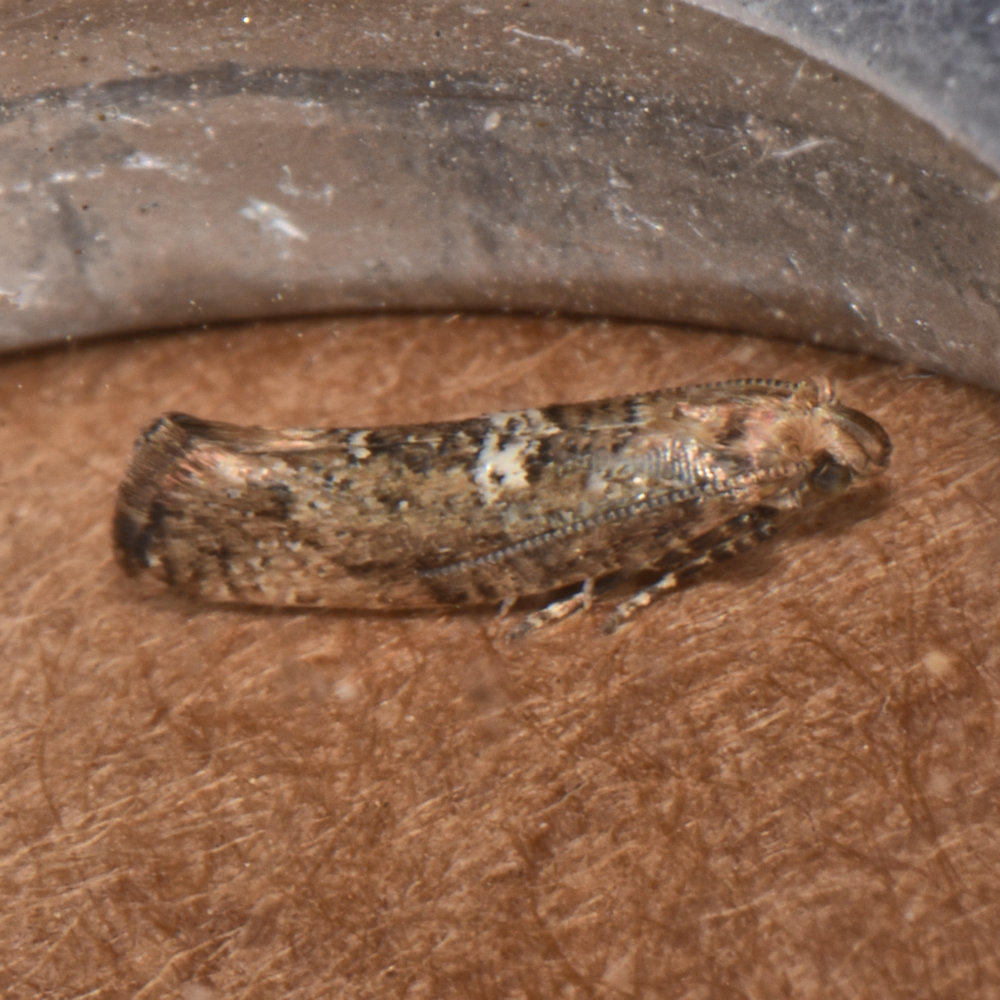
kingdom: Animalia
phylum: Arthropoda
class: Insecta
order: Lepidoptera
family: Glyphipterigidae
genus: Acrolepia
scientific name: Acrolepia assectella
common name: Onion leaf miner
